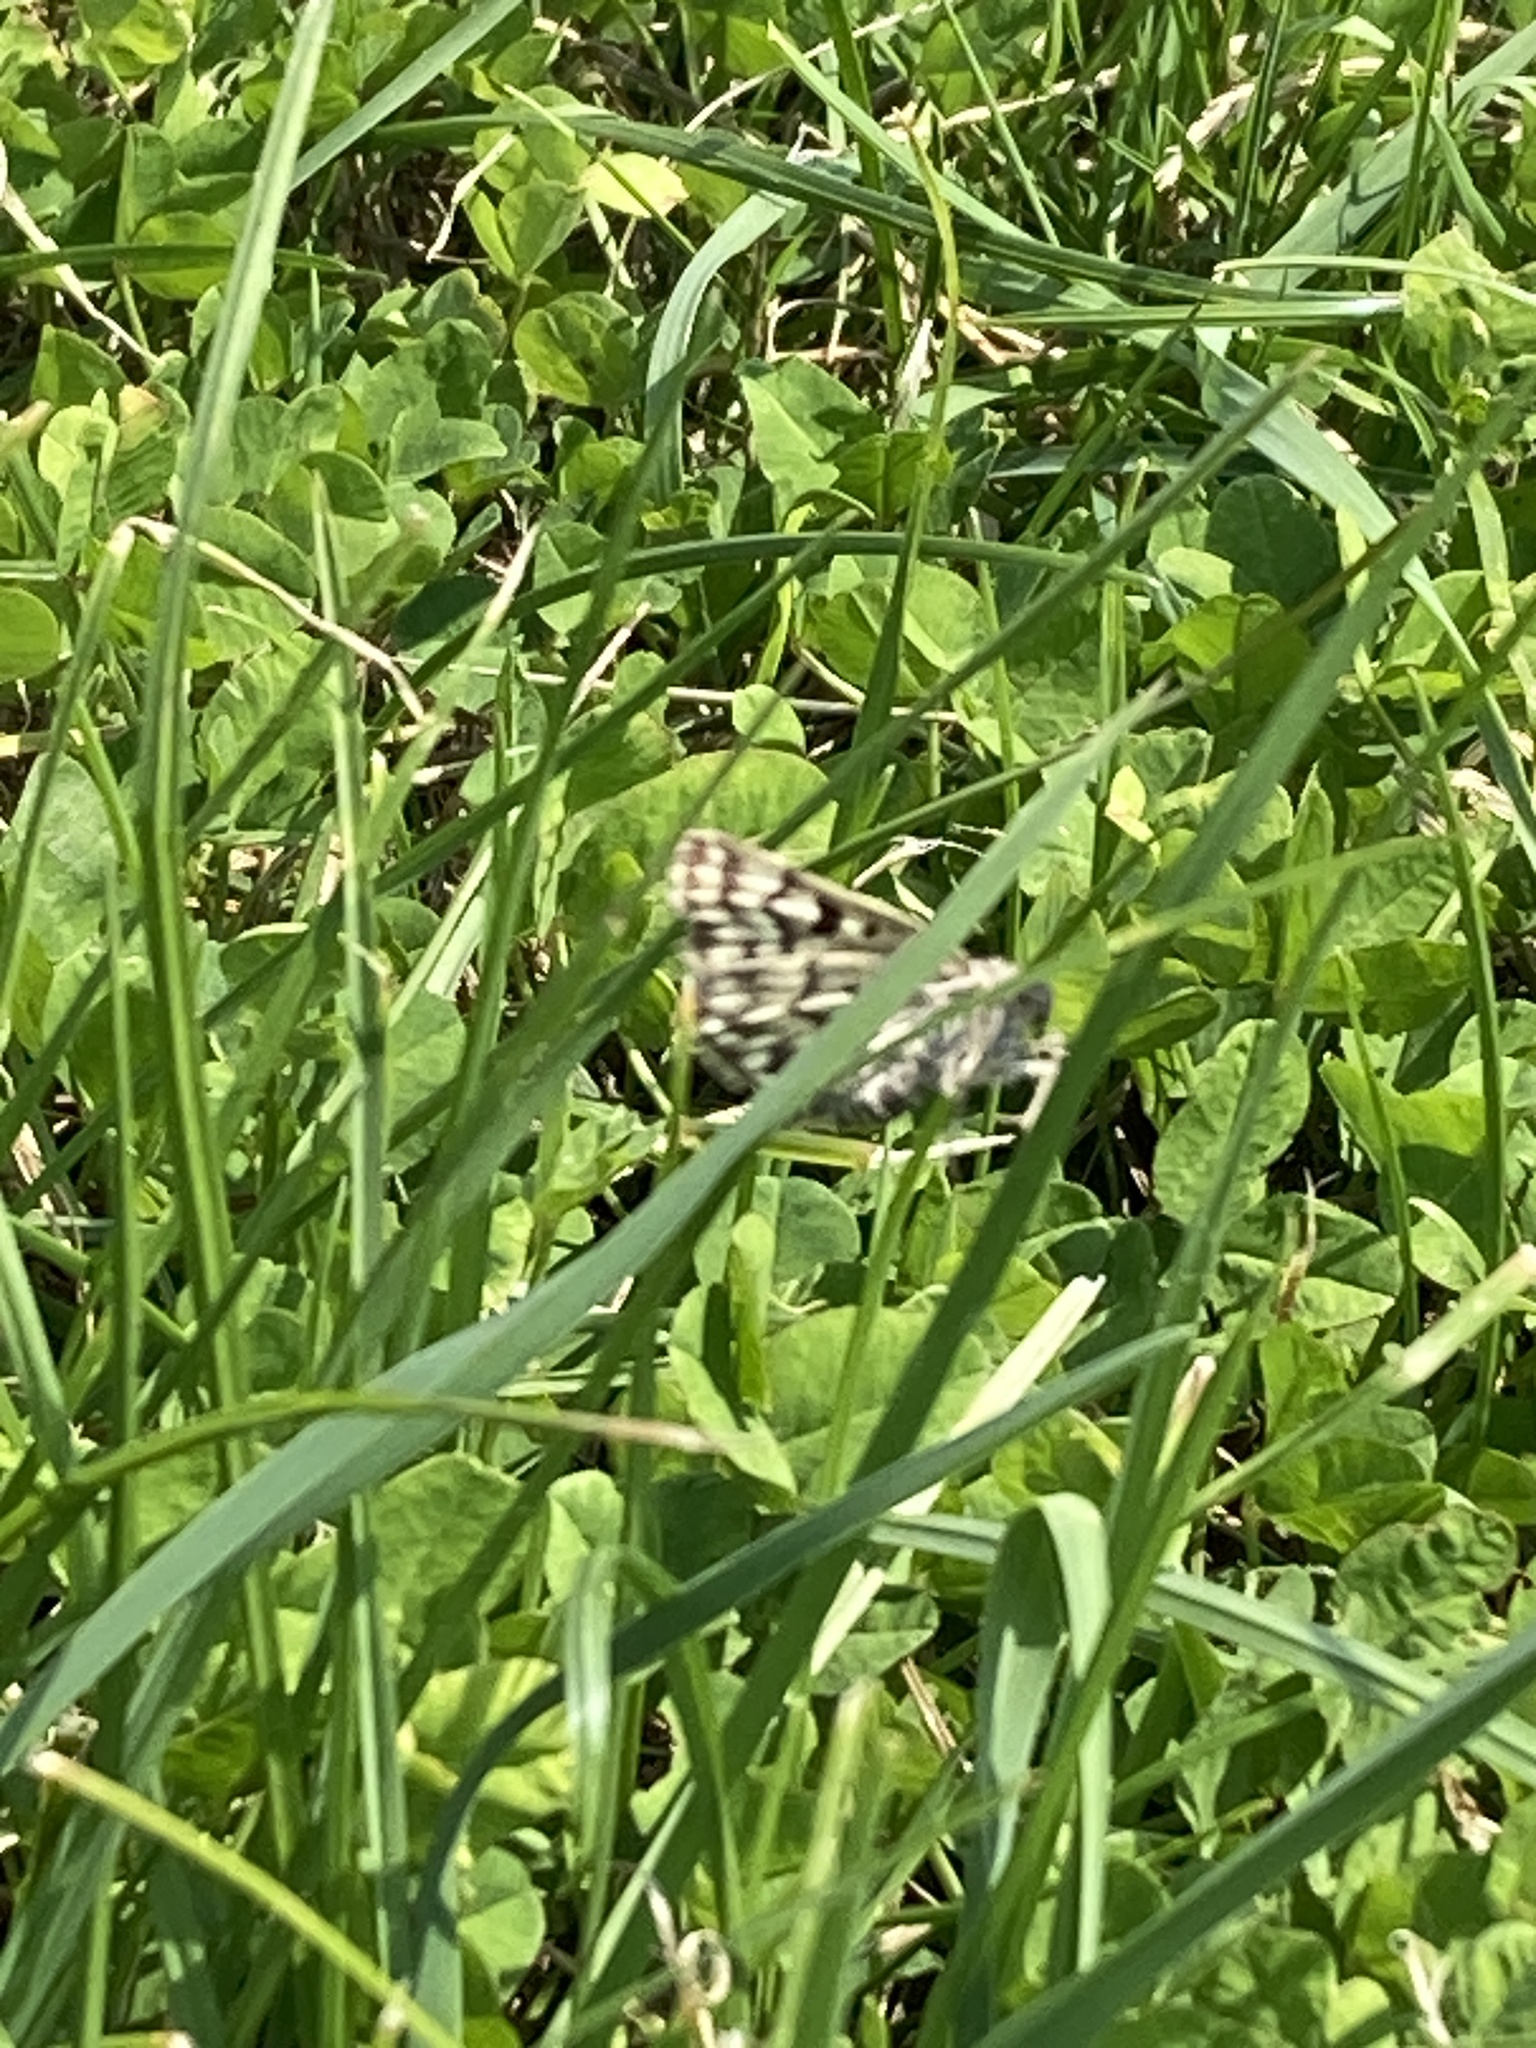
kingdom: Animalia
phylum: Arthropoda
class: Insecta
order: Lepidoptera
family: Erebidae
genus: Callistege
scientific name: Callistege mi
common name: Mother shipton
